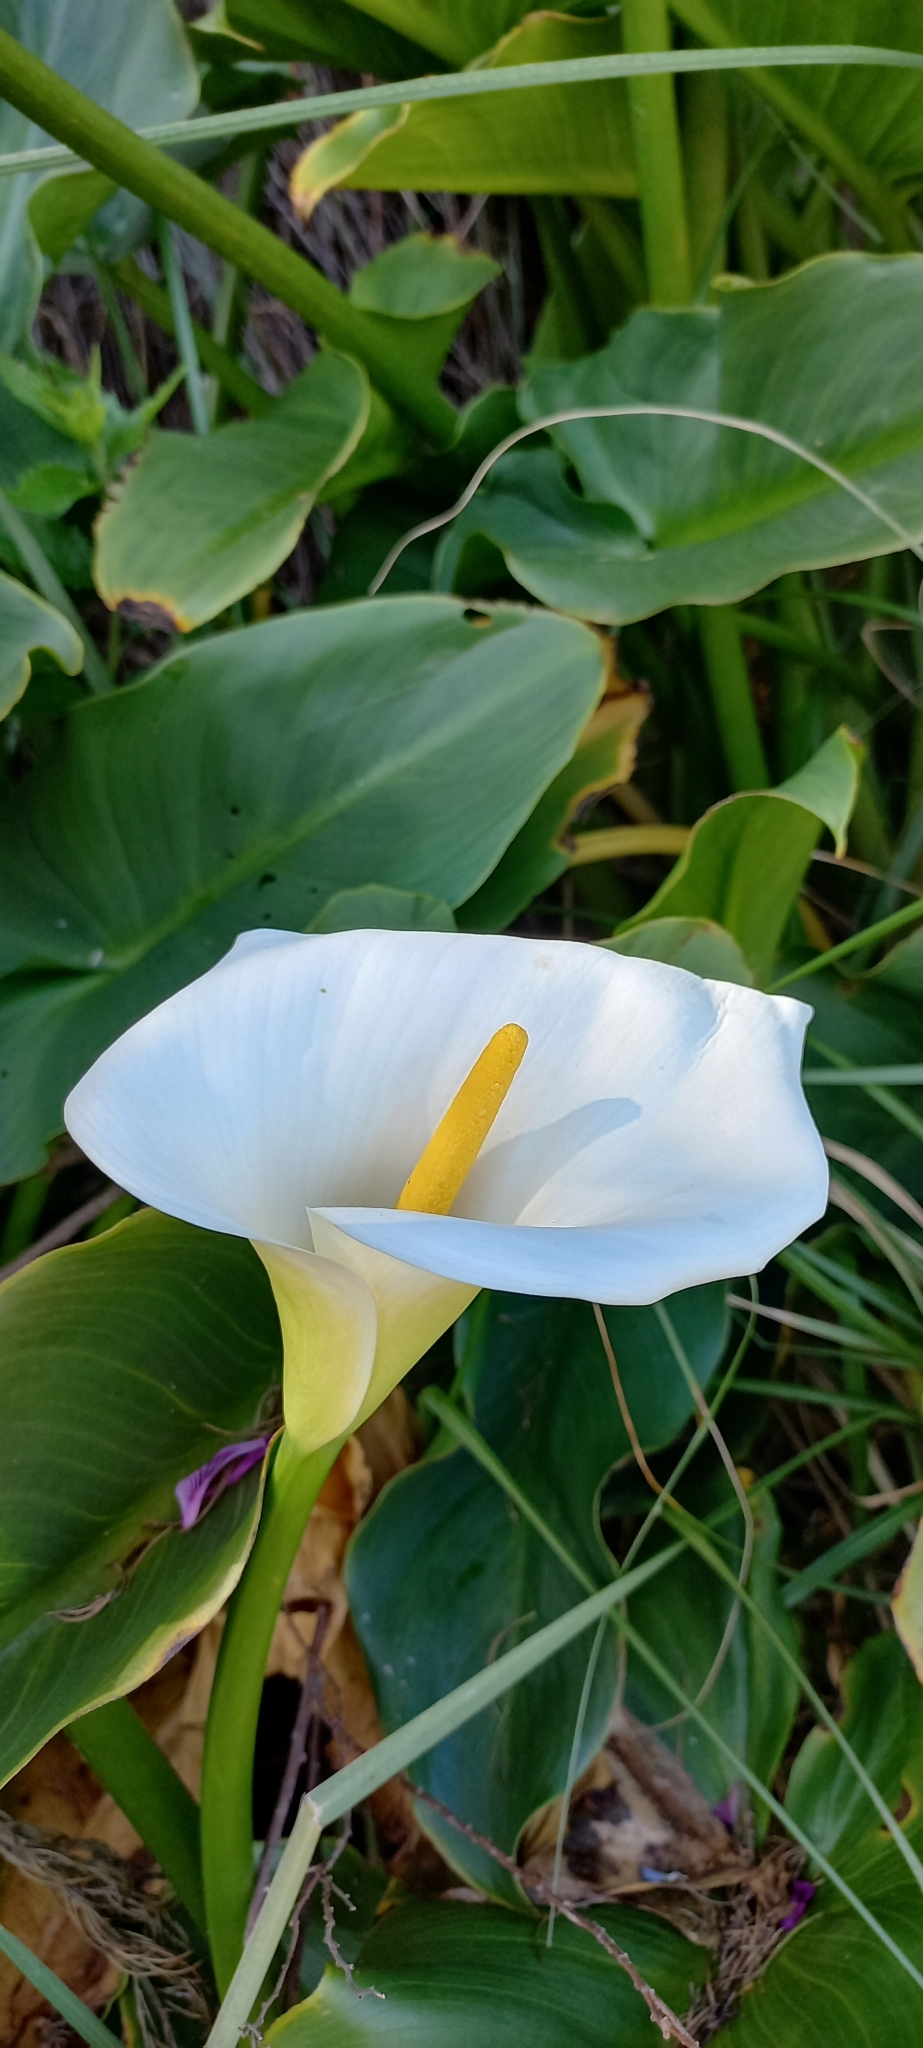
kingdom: Plantae
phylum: Tracheophyta
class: Liliopsida
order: Alismatales
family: Araceae
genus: Zantedeschia
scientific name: Zantedeschia aethiopica
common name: Altar-lily
